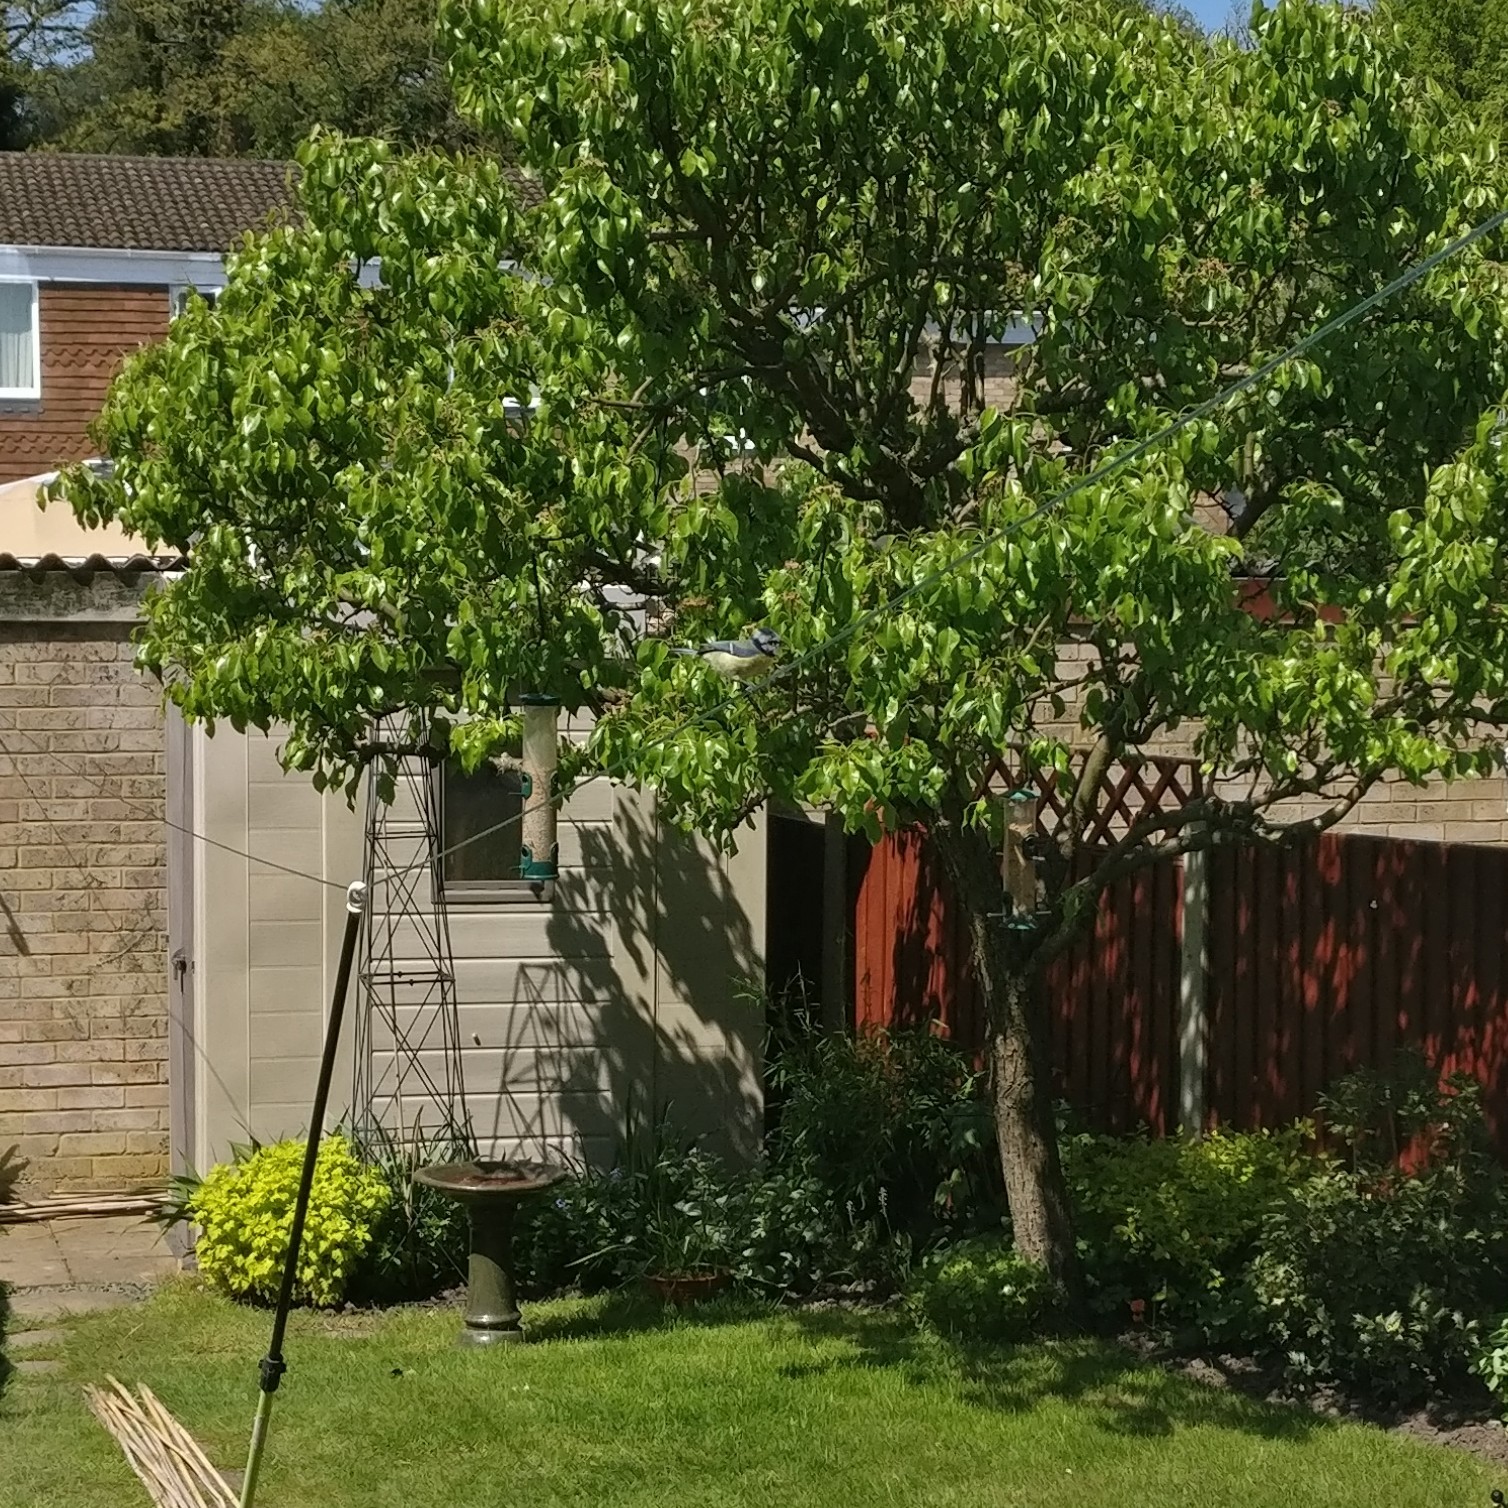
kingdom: Animalia
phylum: Chordata
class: Aves
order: Passeriformes
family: Paridae
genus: Cyanistes
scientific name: Cyanistes caeruleus
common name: Eurasian blue tit
